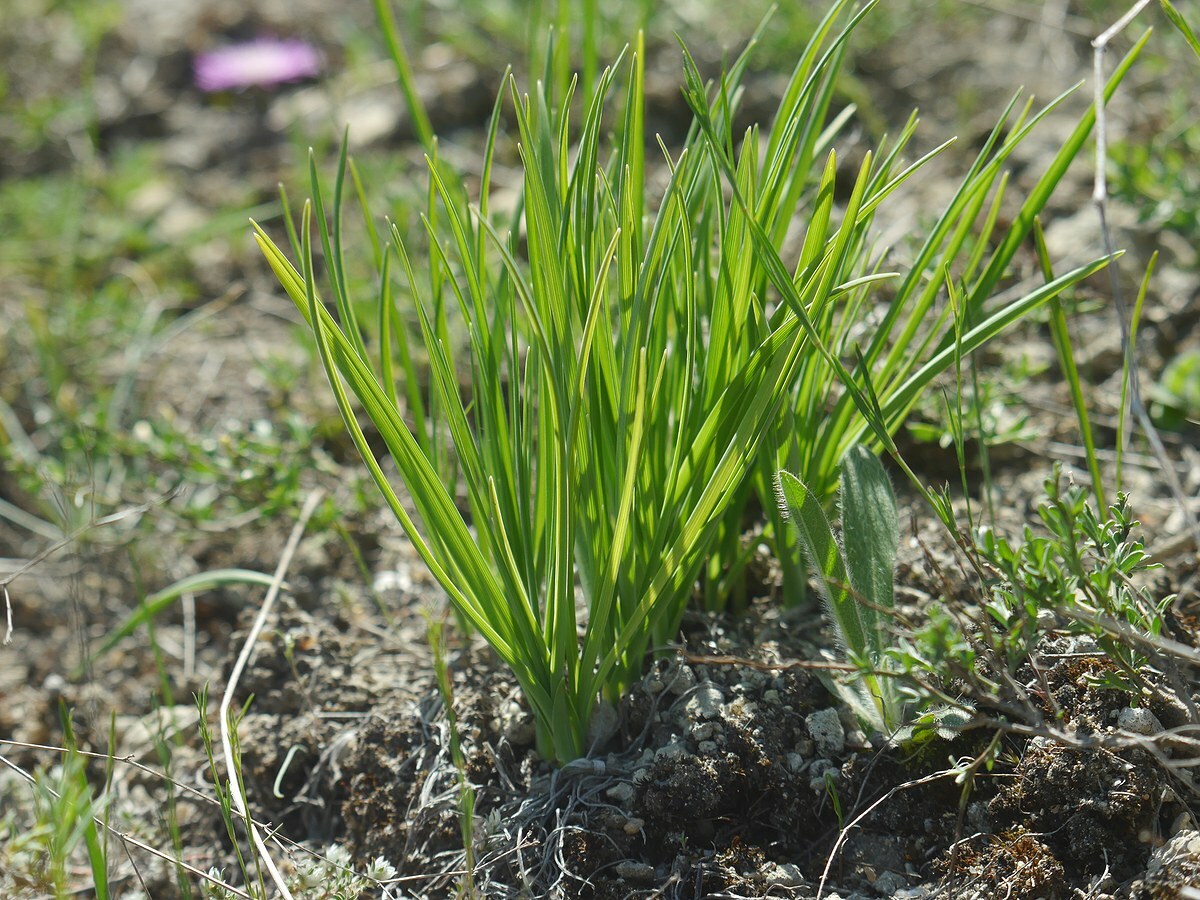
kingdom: Plantae
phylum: Tracheophyta
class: Liliopsida
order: Asparagales
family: Asparagaceae
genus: Anthericum
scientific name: Anthericum ramosum
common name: Branched st. bernard's-lily
